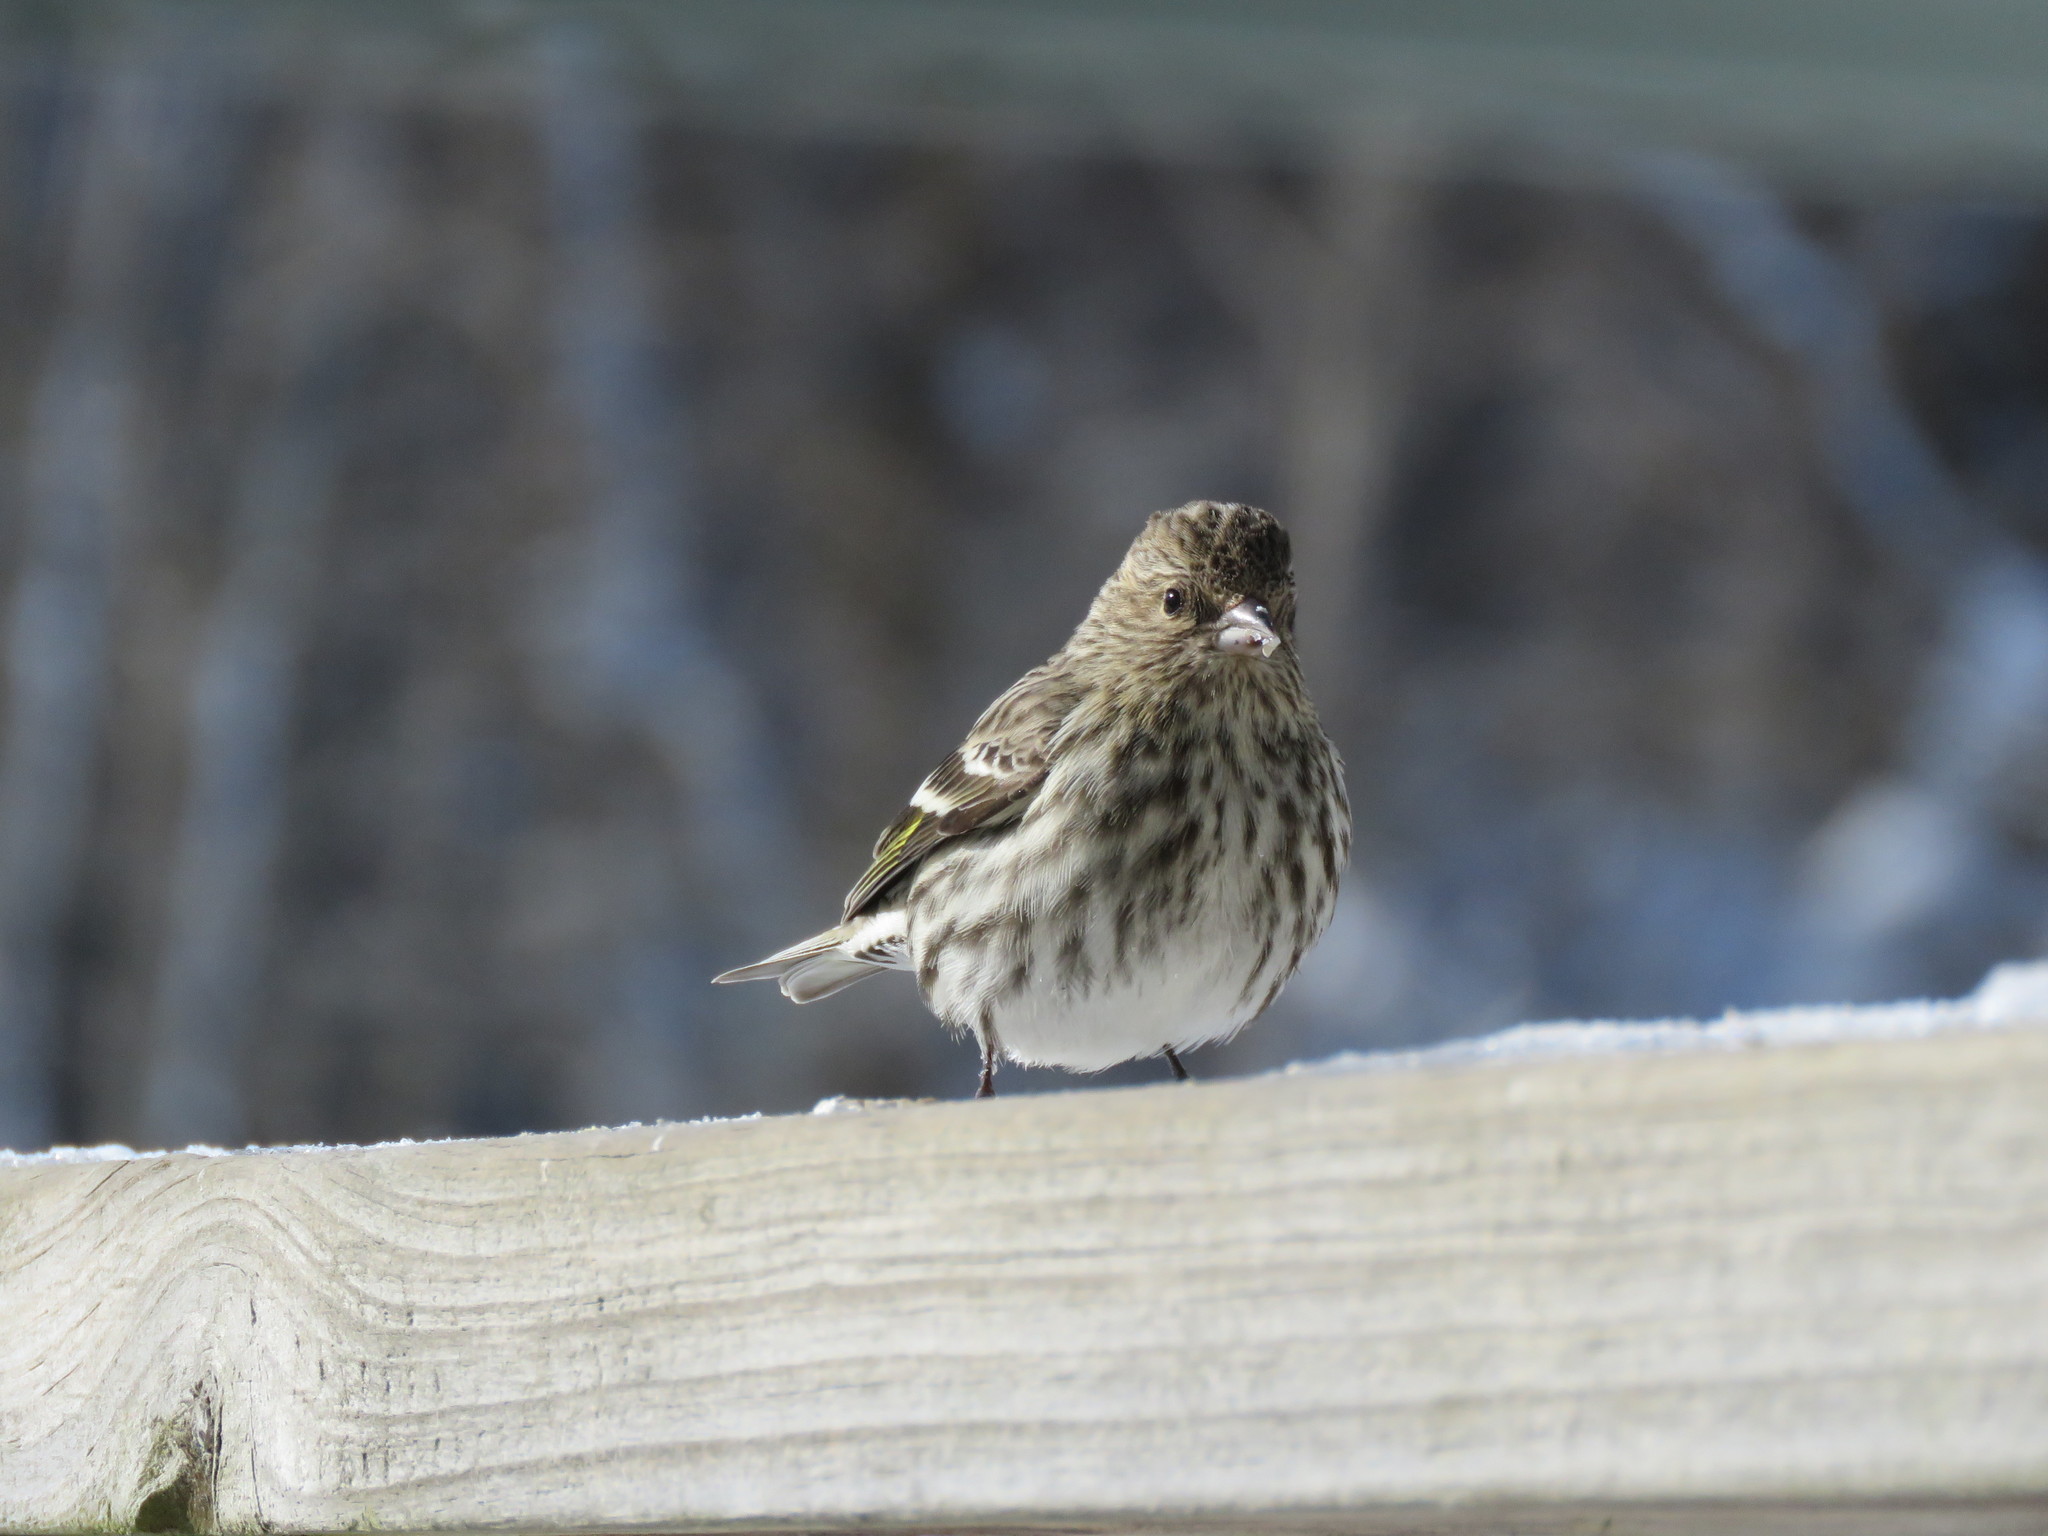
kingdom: Animalia
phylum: Chordata
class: Aves
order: Passeriformes
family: Fringillidae
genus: Spinus
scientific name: Spinus pinus
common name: Pine siskin
